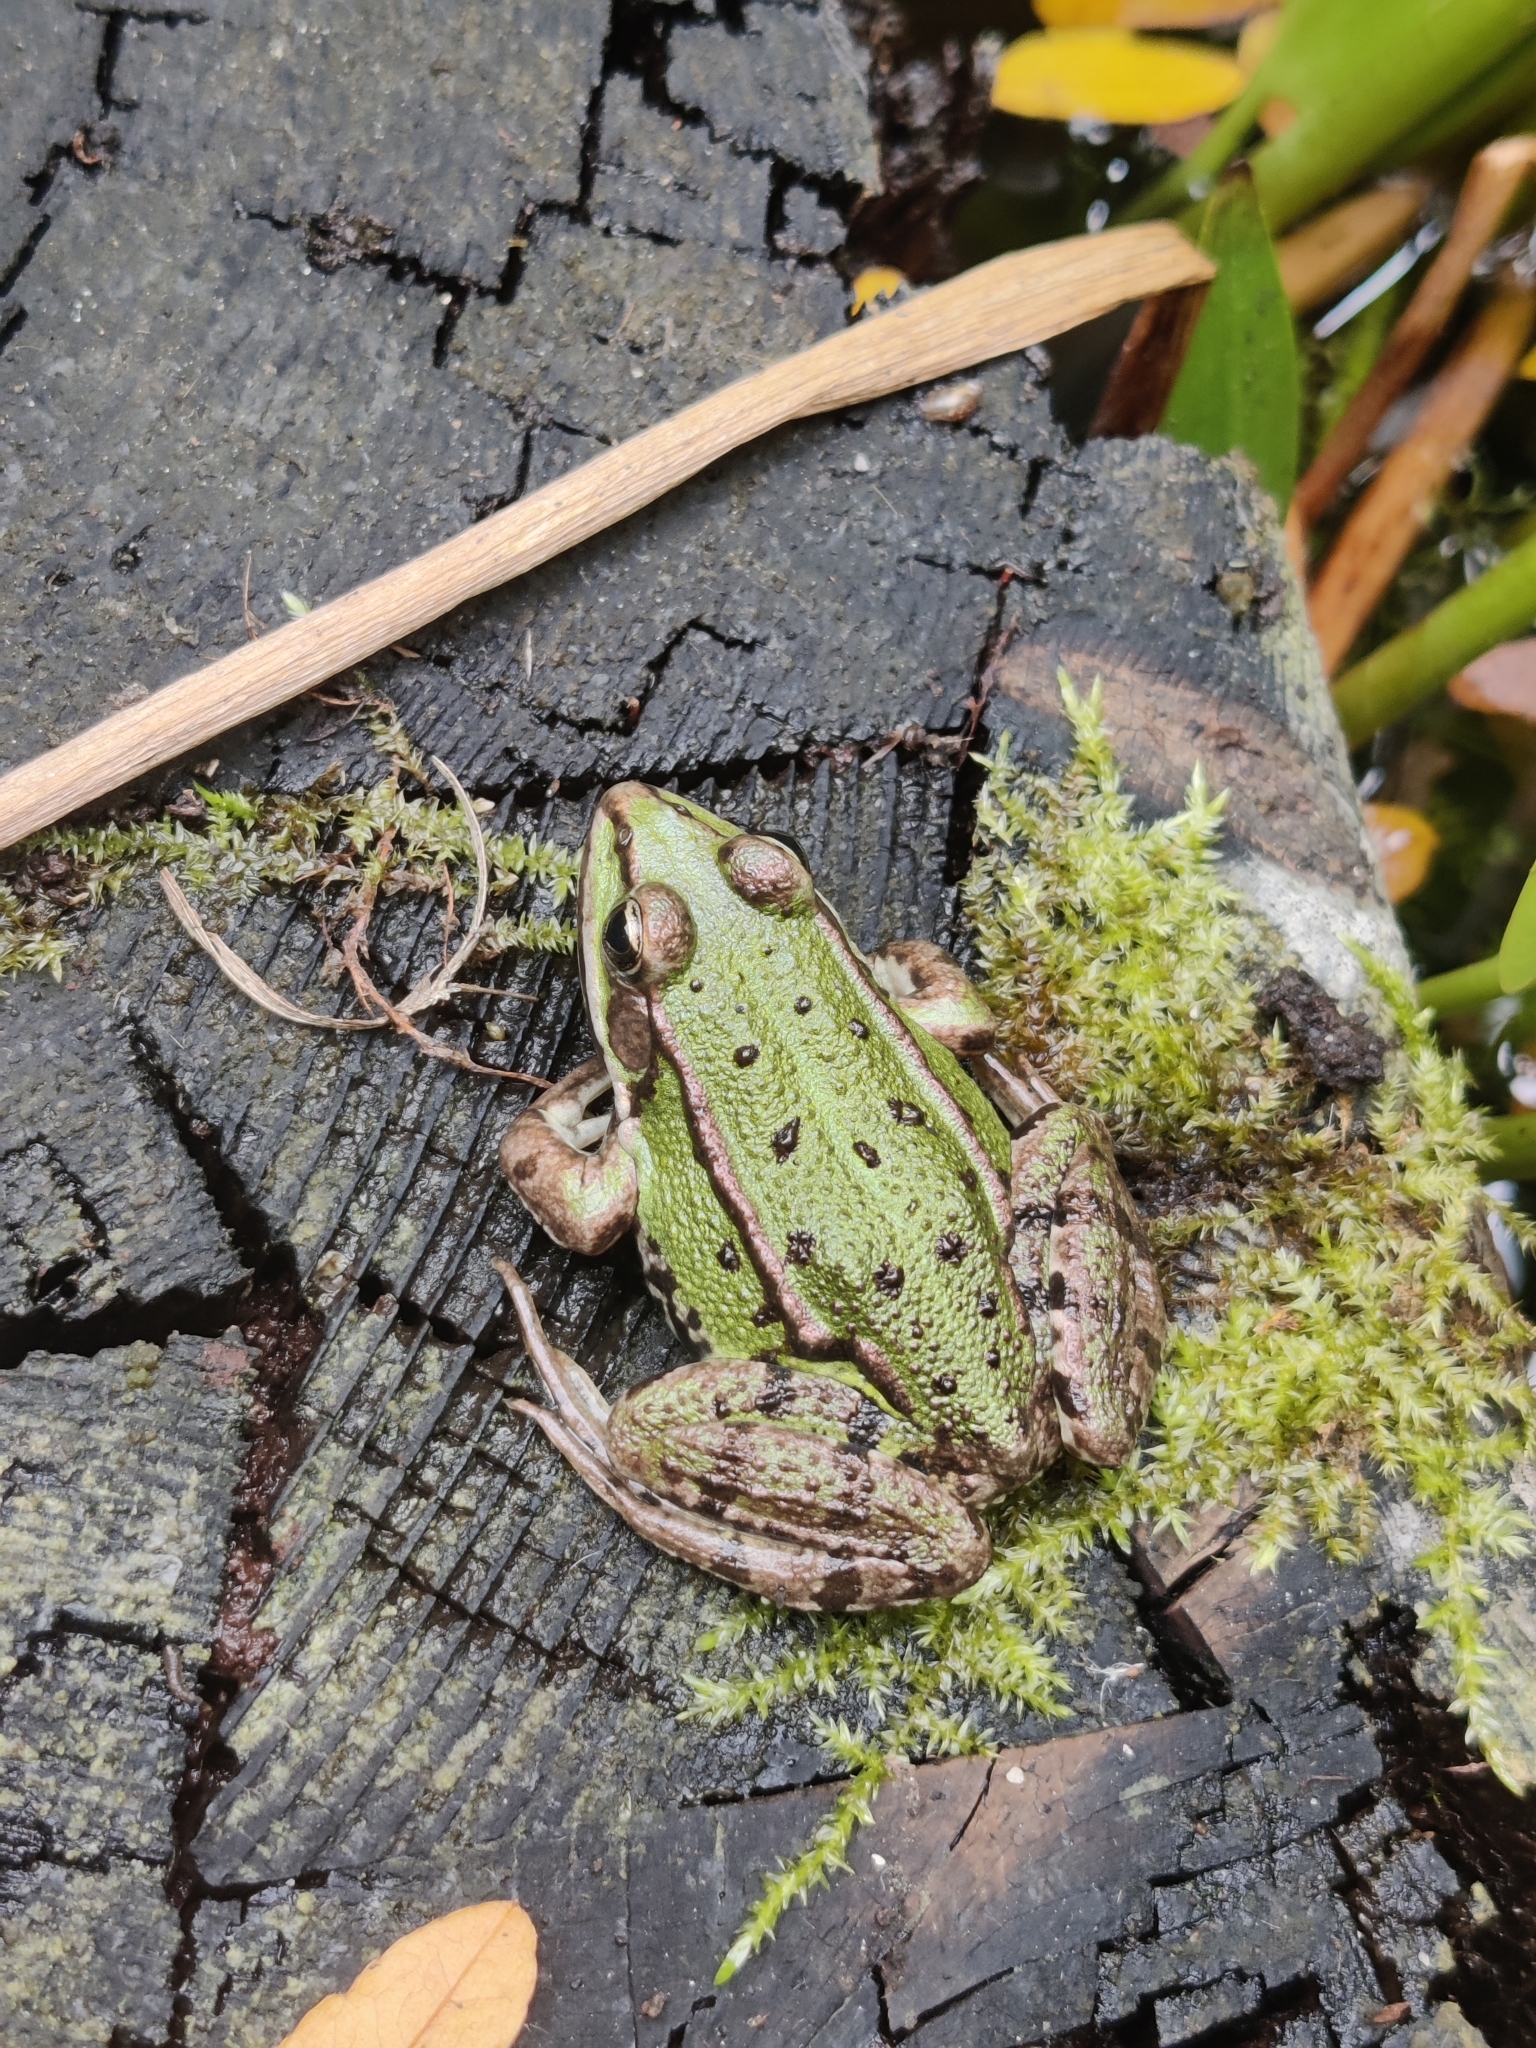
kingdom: Animalia
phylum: Chordata
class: Amphibia
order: Anura
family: Ranidae
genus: Pelophylax
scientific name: Pelophylax
